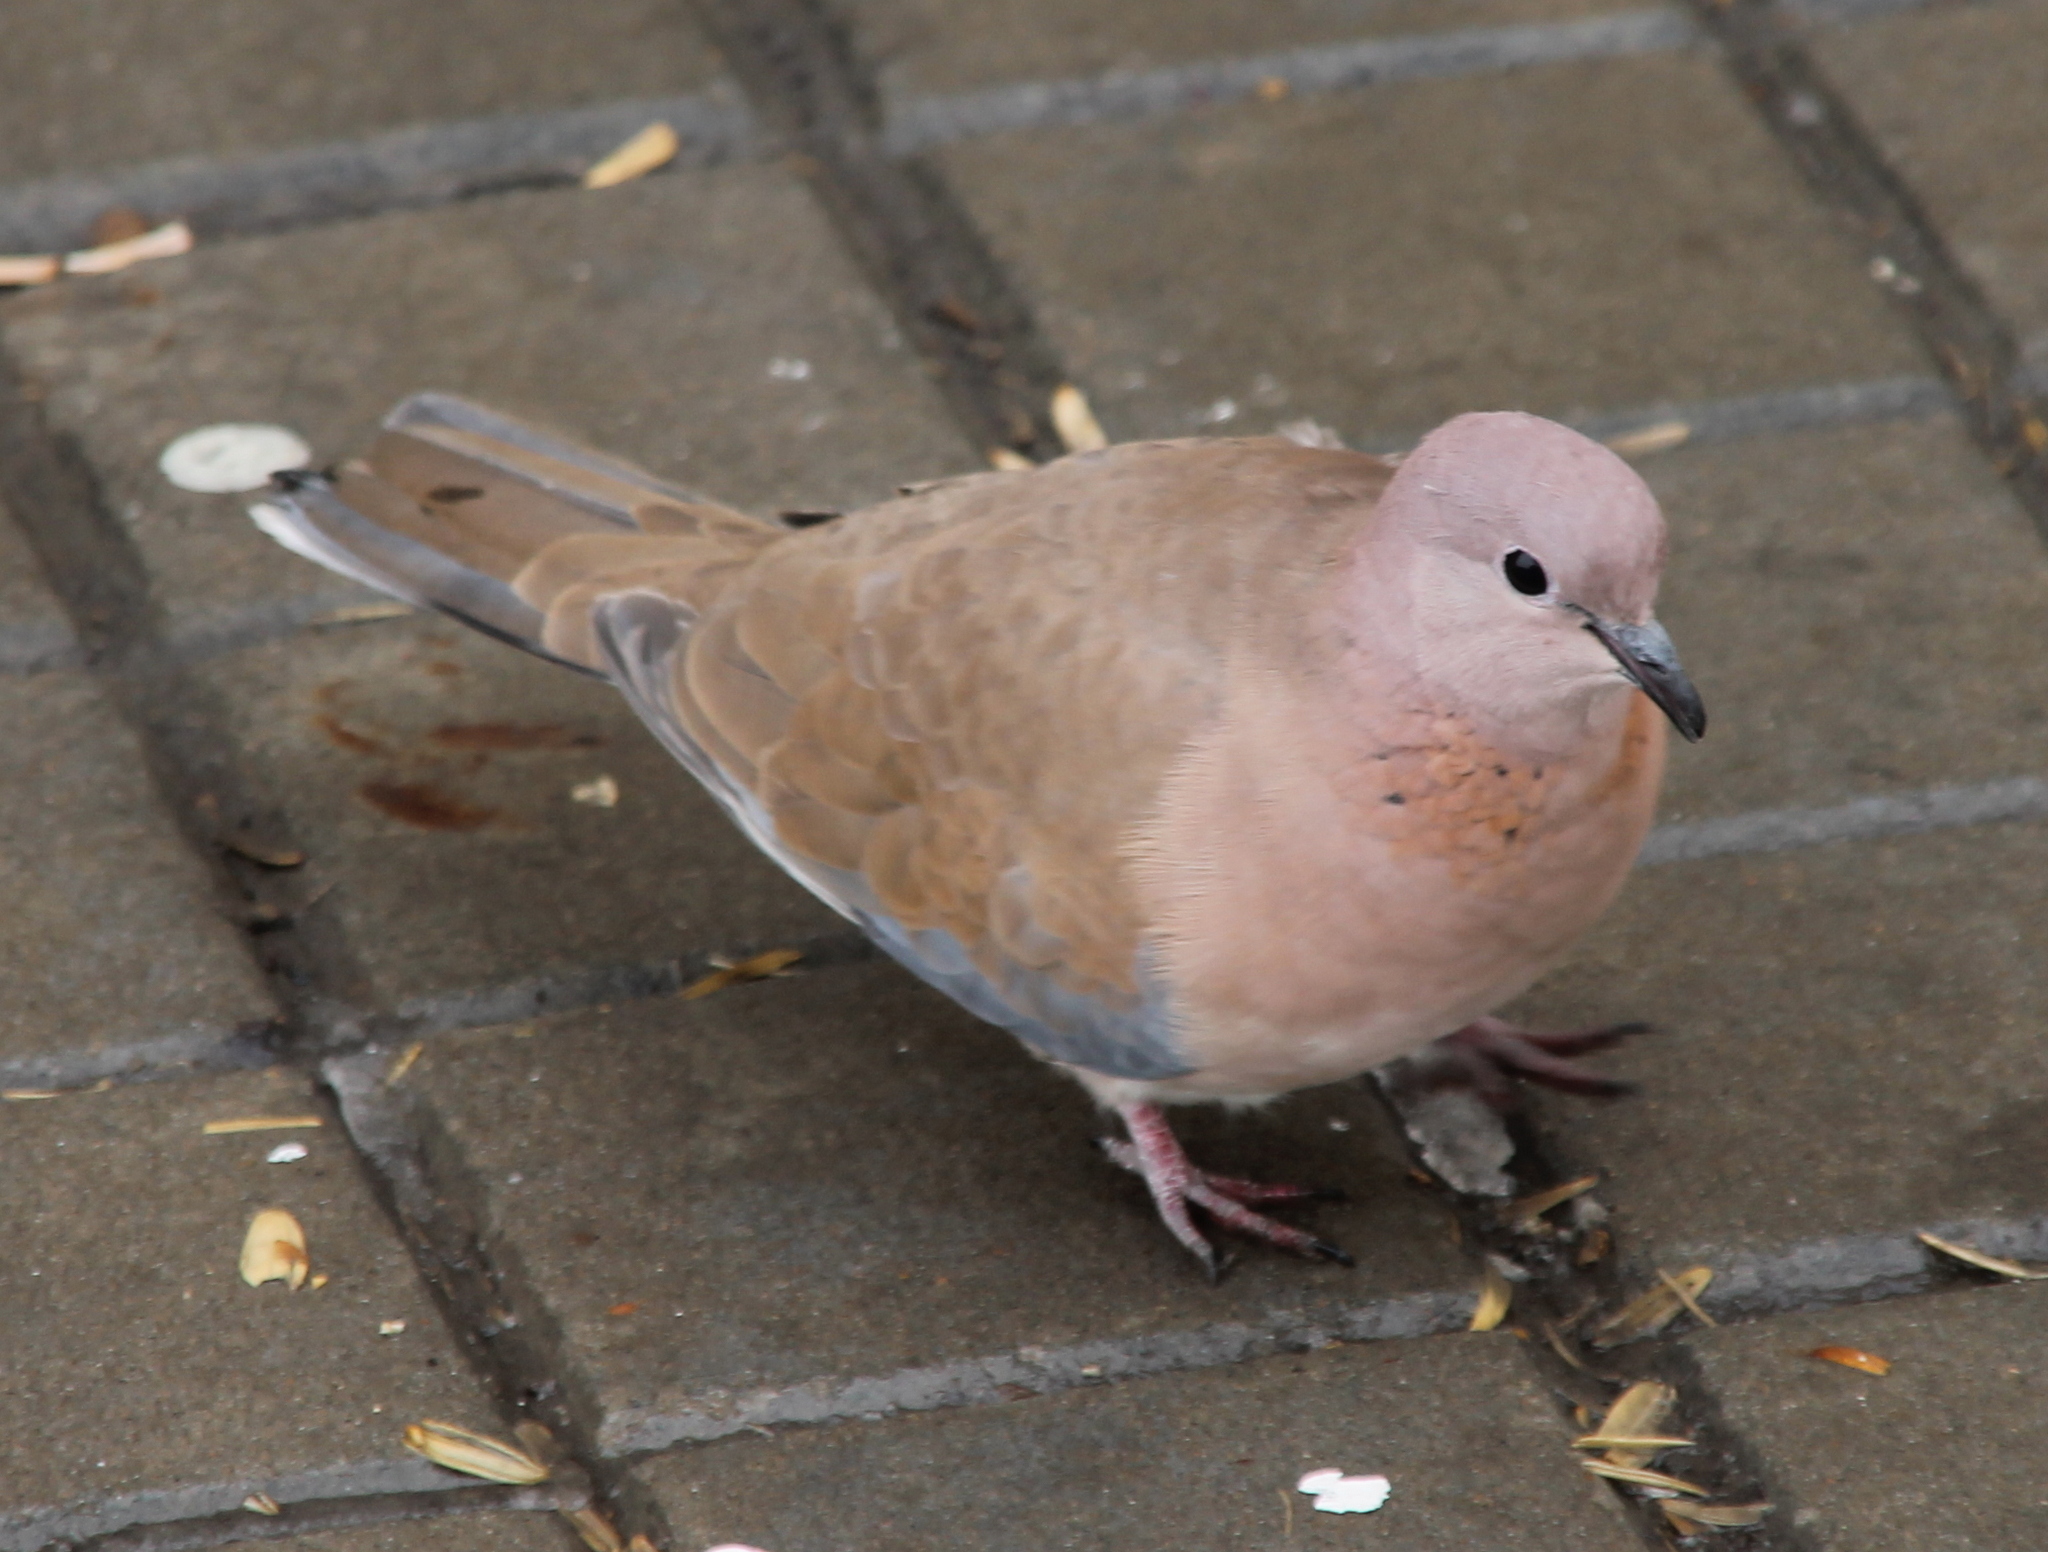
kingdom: Animalia
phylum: Chordata
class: Aves
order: Columbiformes
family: Columbidae
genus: Spilopelia
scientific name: Spilopelia senegalensis
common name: Laughing dove
